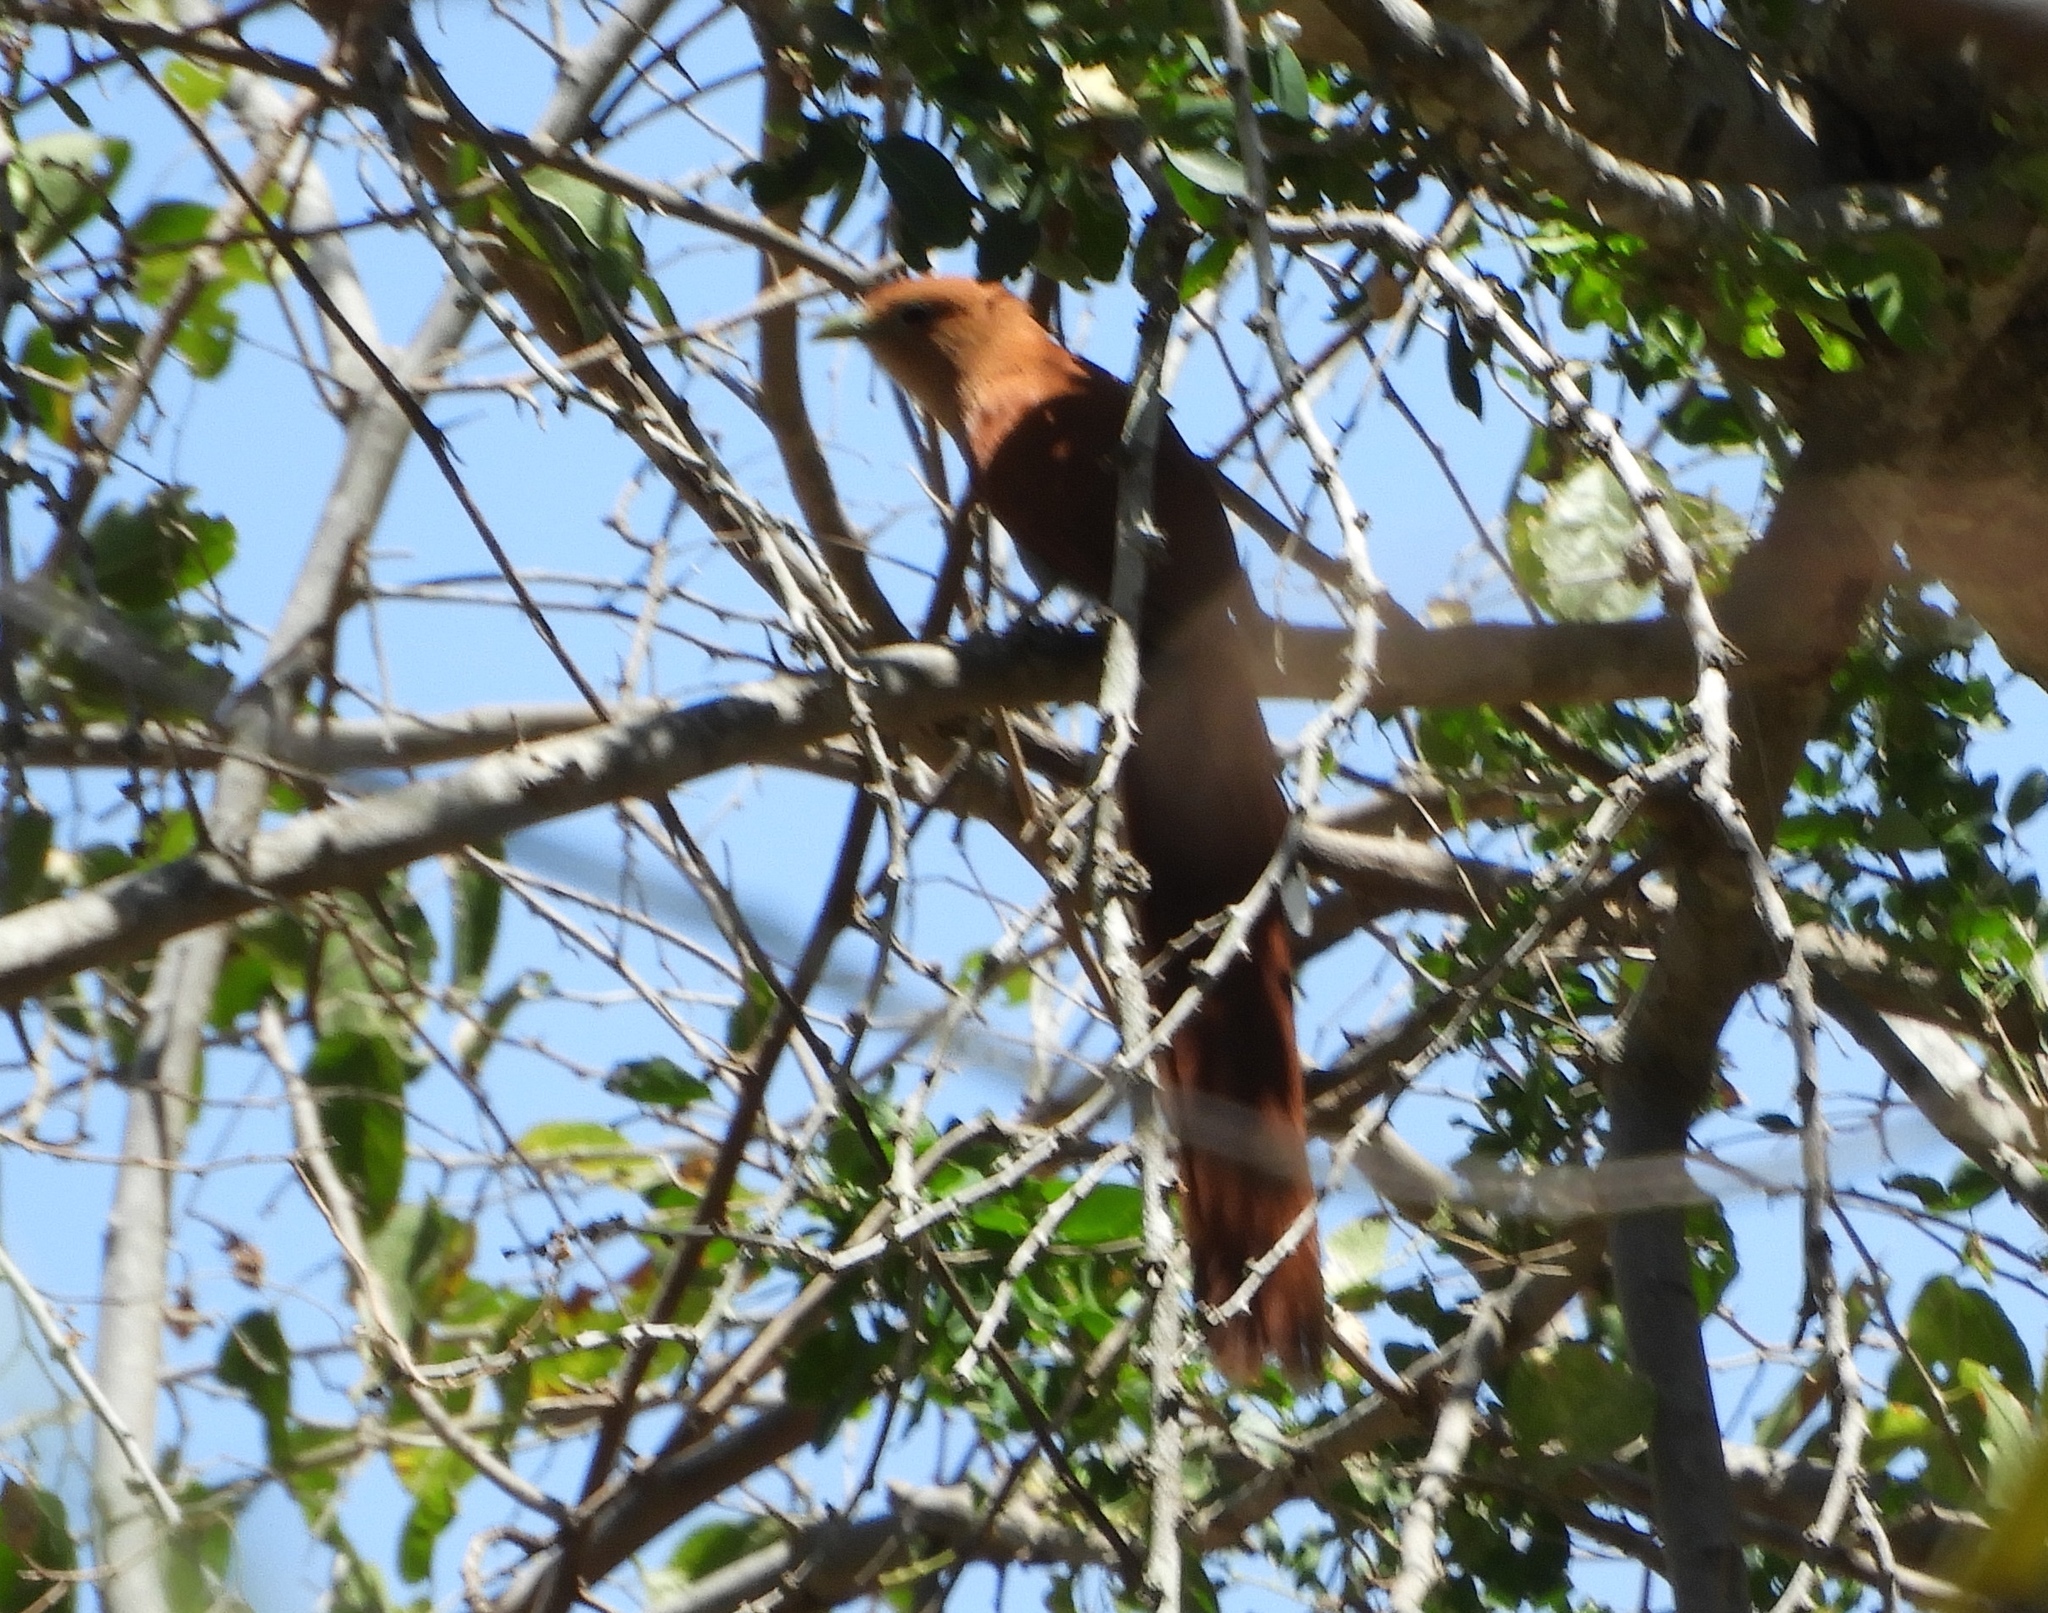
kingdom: Animalia
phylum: Chordata
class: Aves
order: Cuculiformes
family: Cuculidae
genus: Piaya
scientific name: Piaya cayana
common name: Squirrel cuckoo
